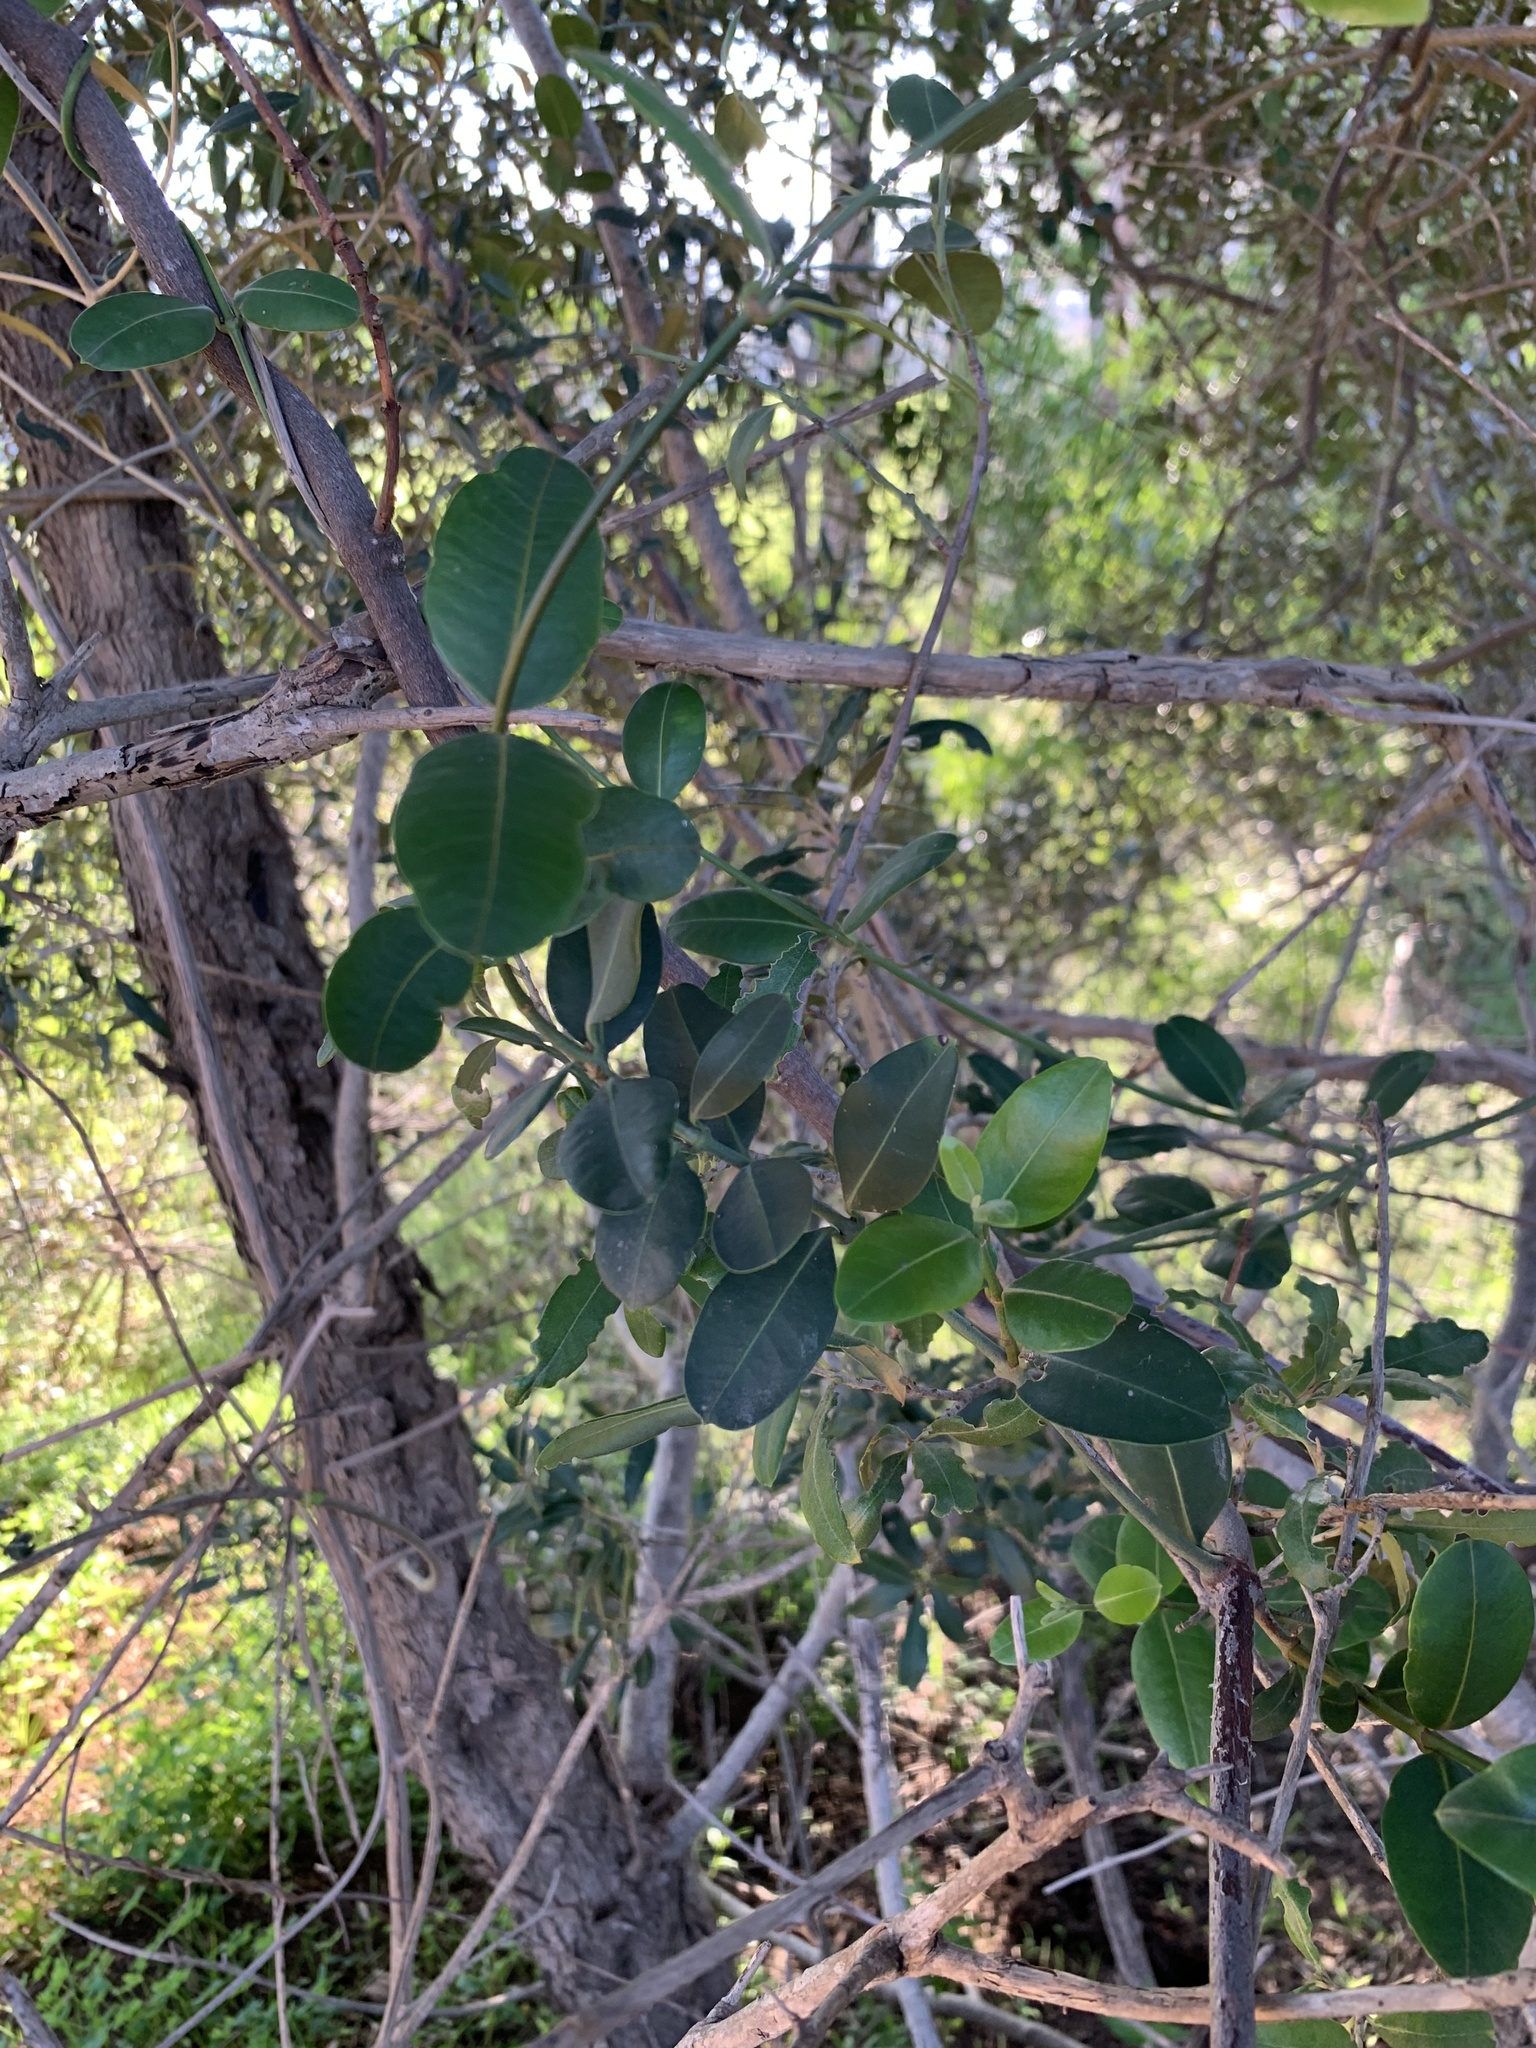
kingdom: Plantae
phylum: Tracheophyta
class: Magnoliopsida
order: Gentianales
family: Apocynaceae
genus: Secamone
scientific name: Secamone alpini
